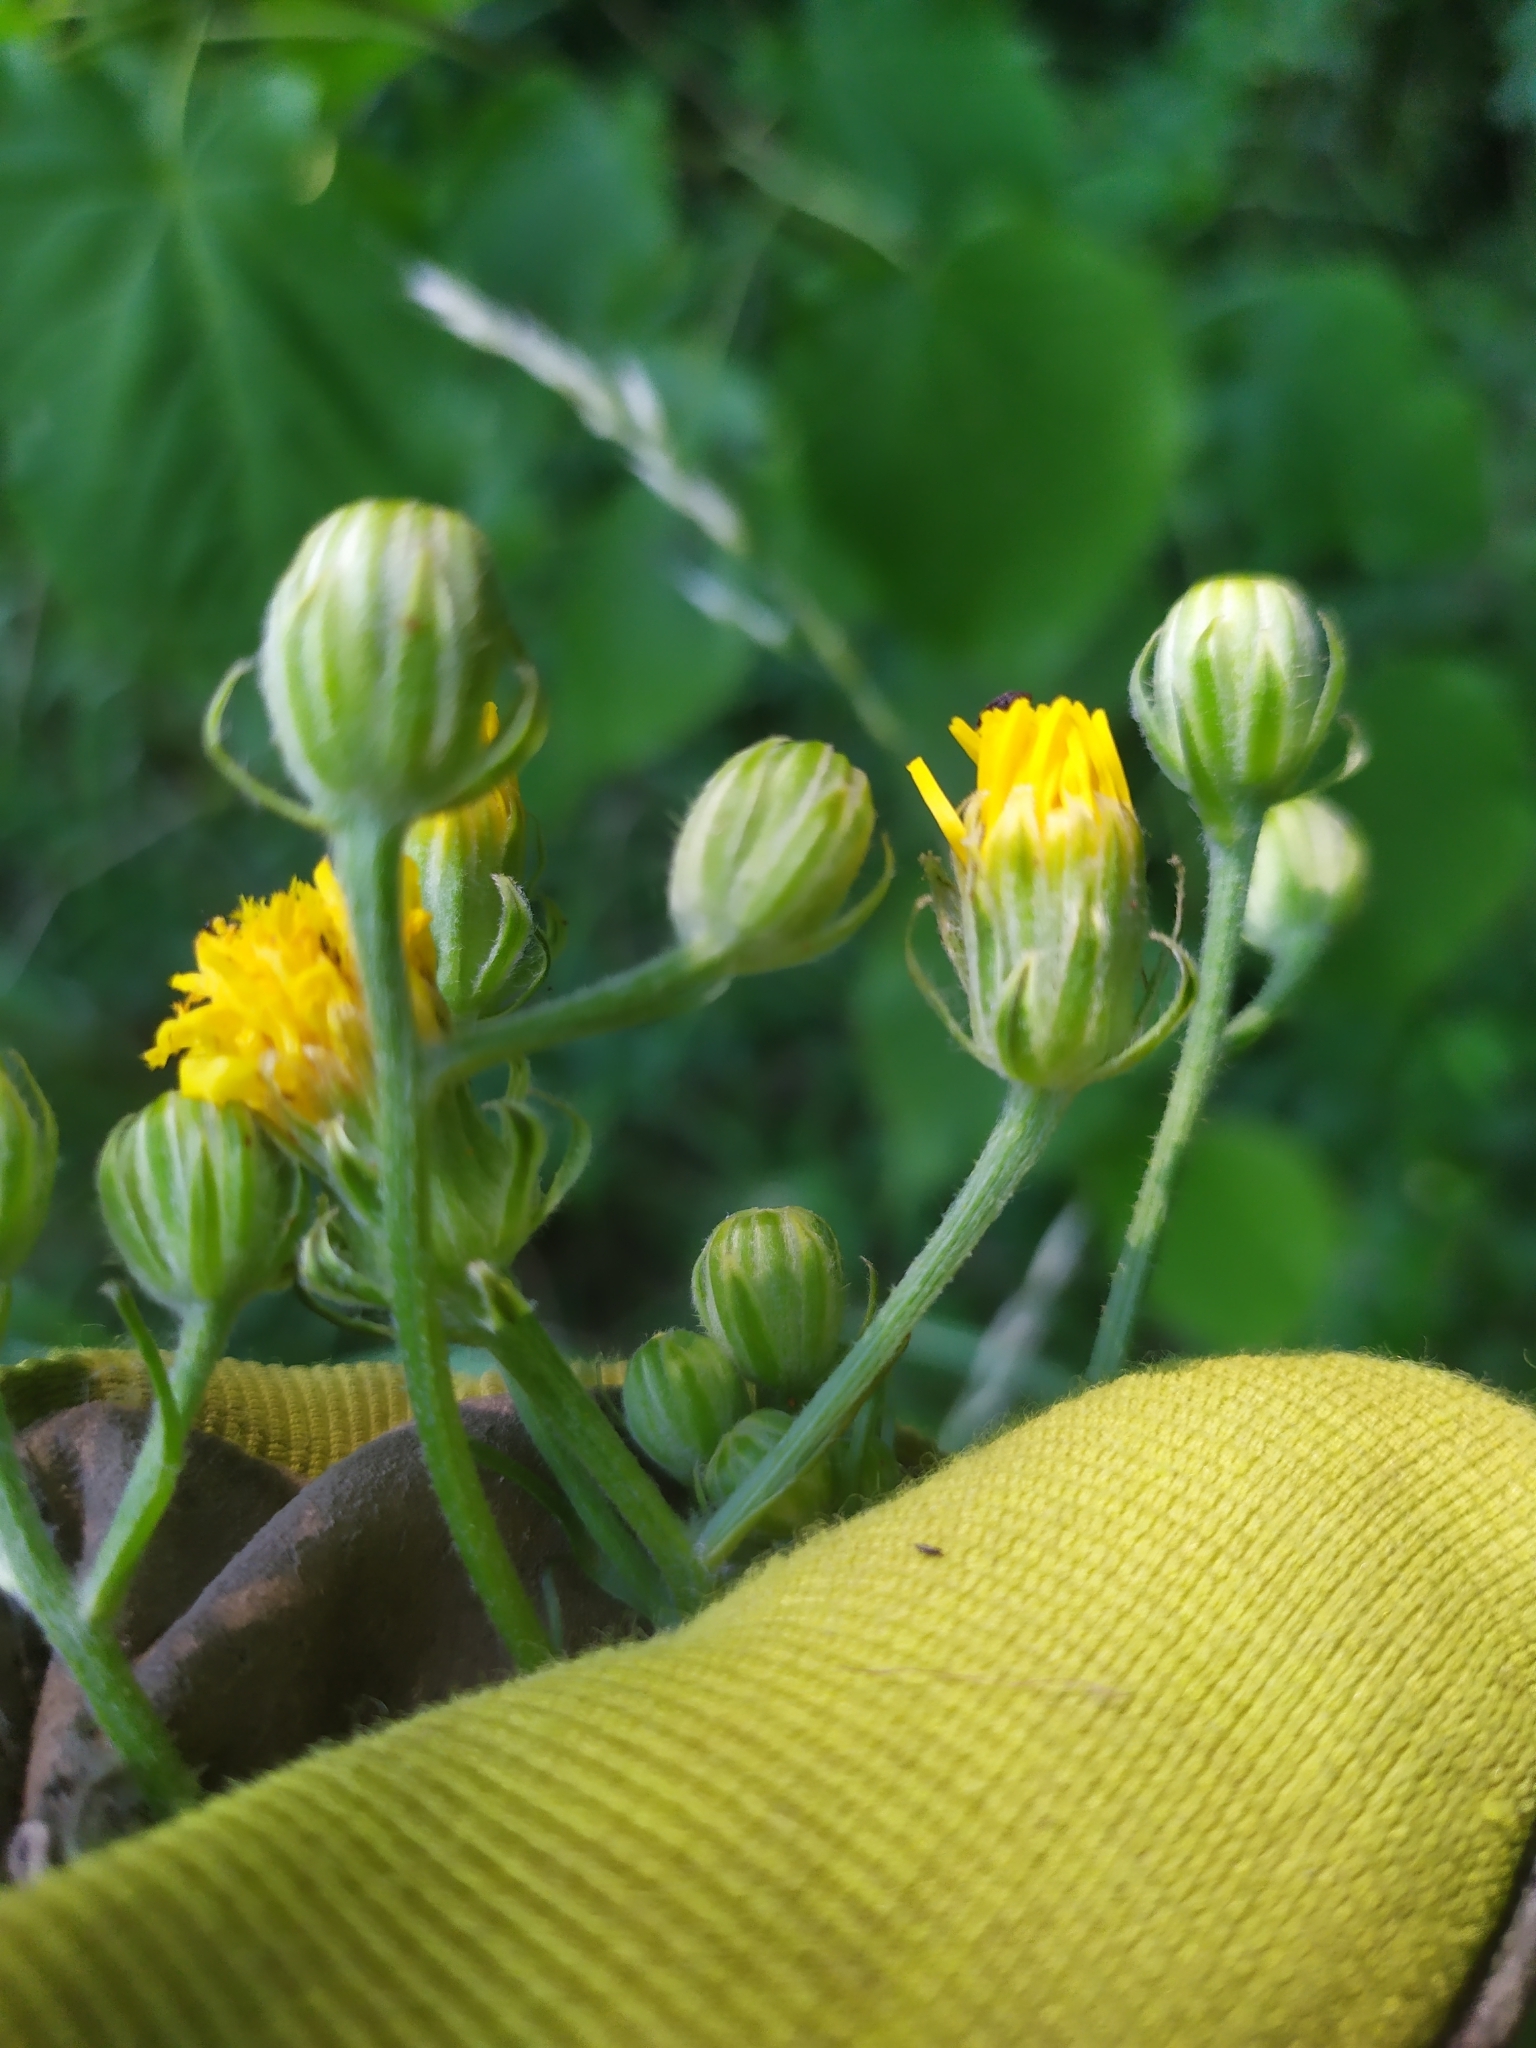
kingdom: Plantae
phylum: Tracheophyta
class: Magnoliopsida
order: Asterales
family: Asteraceae
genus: Crepis
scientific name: Crepis biennis
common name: Rough hawk's-beard
